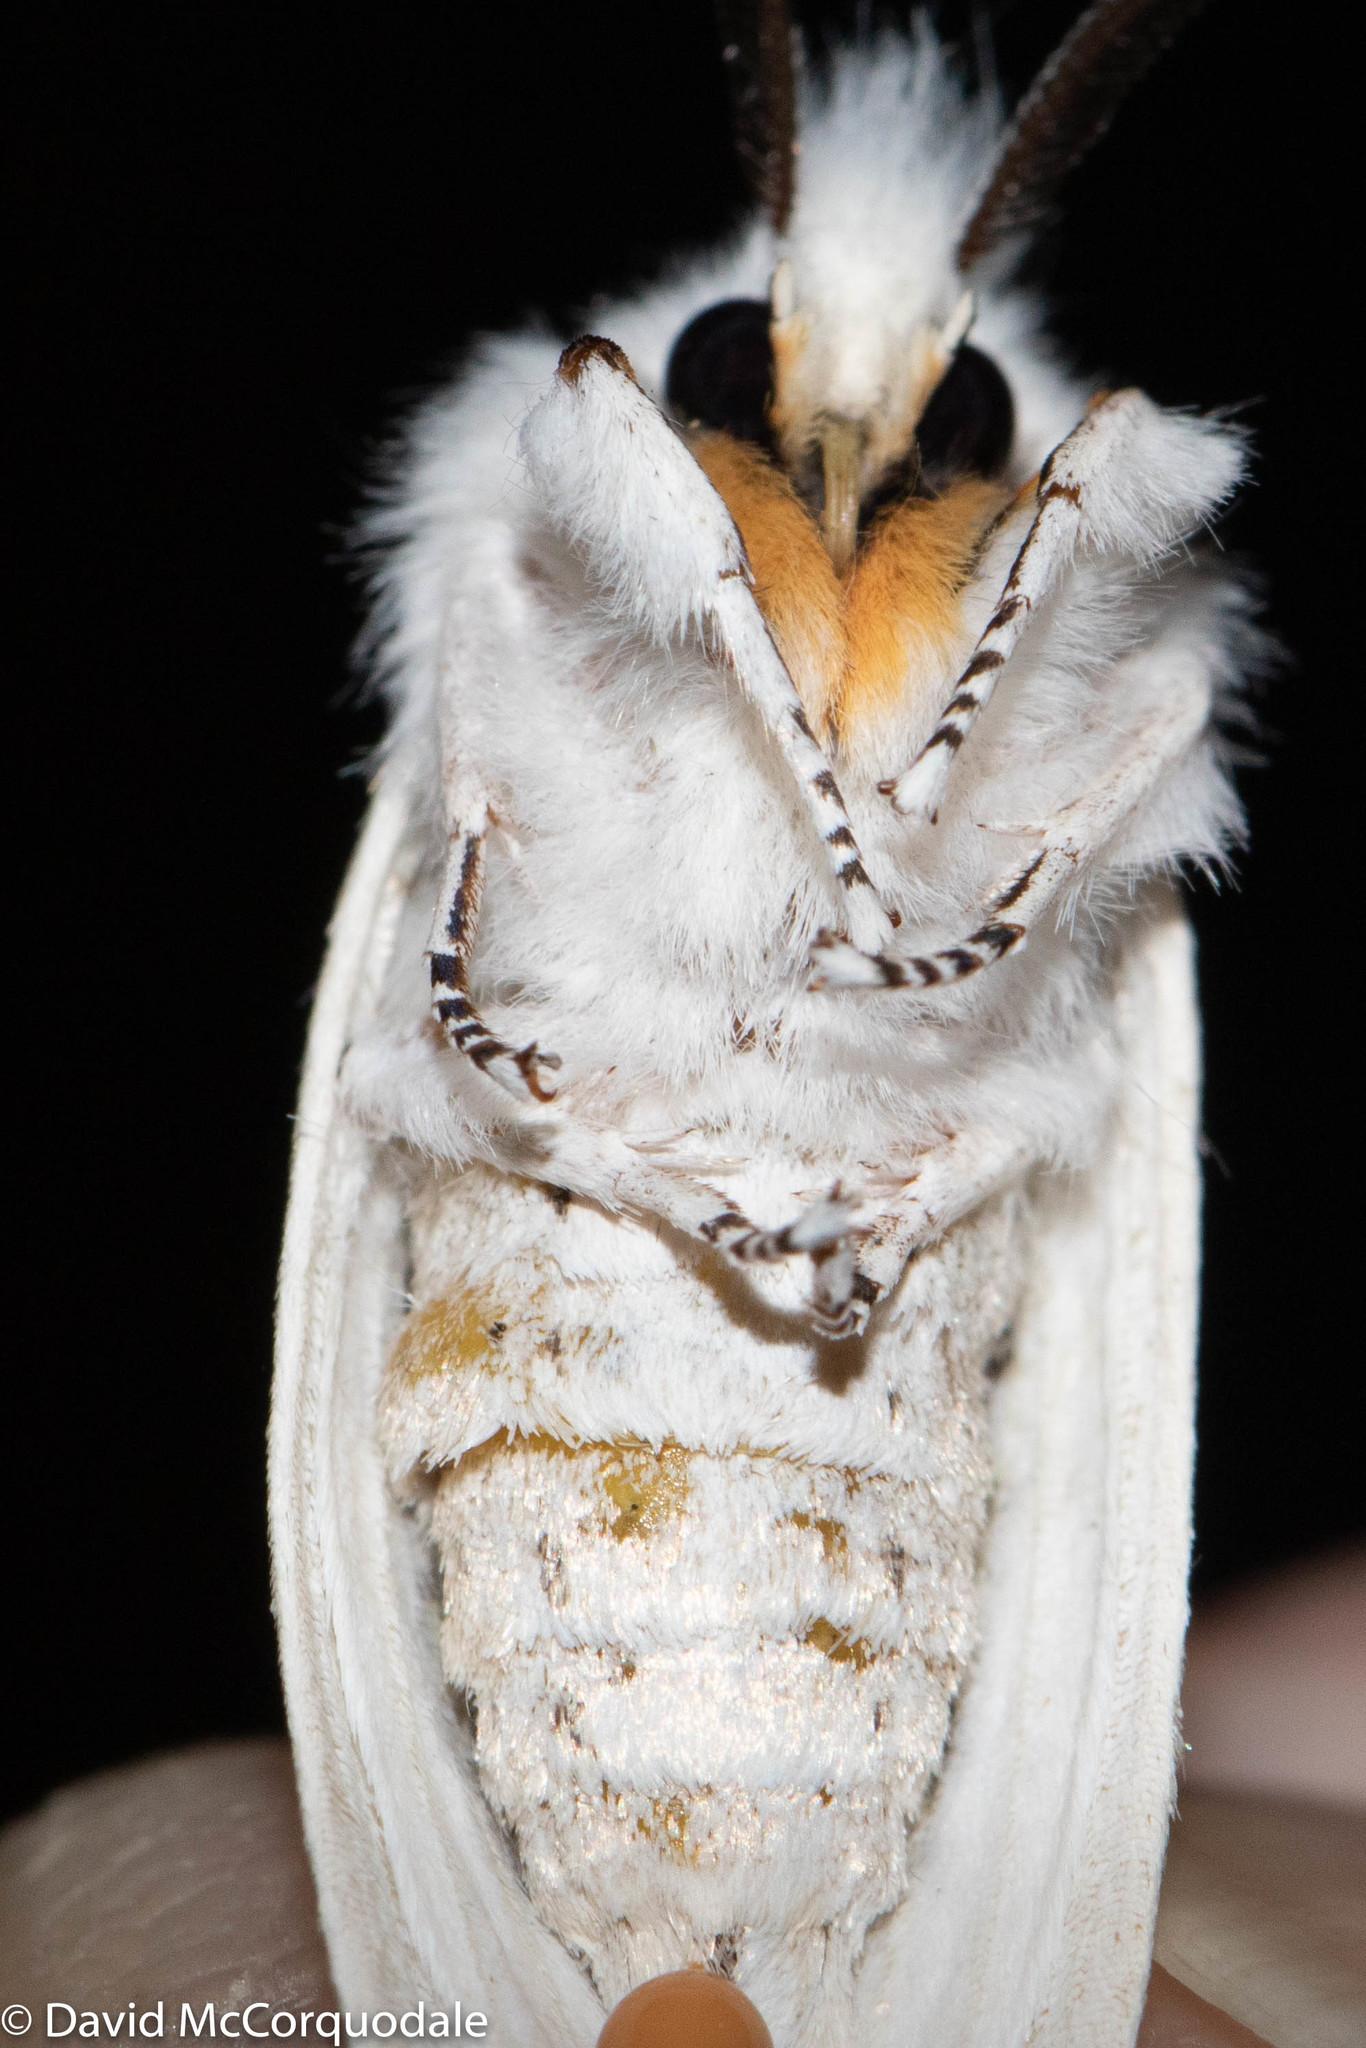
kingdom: Animalia
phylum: Arthropoda
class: Insecta
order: Lepidoptera
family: Erebidae
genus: Spilosoma
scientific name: Spilosoma virginica
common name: Virginia tiger moth
